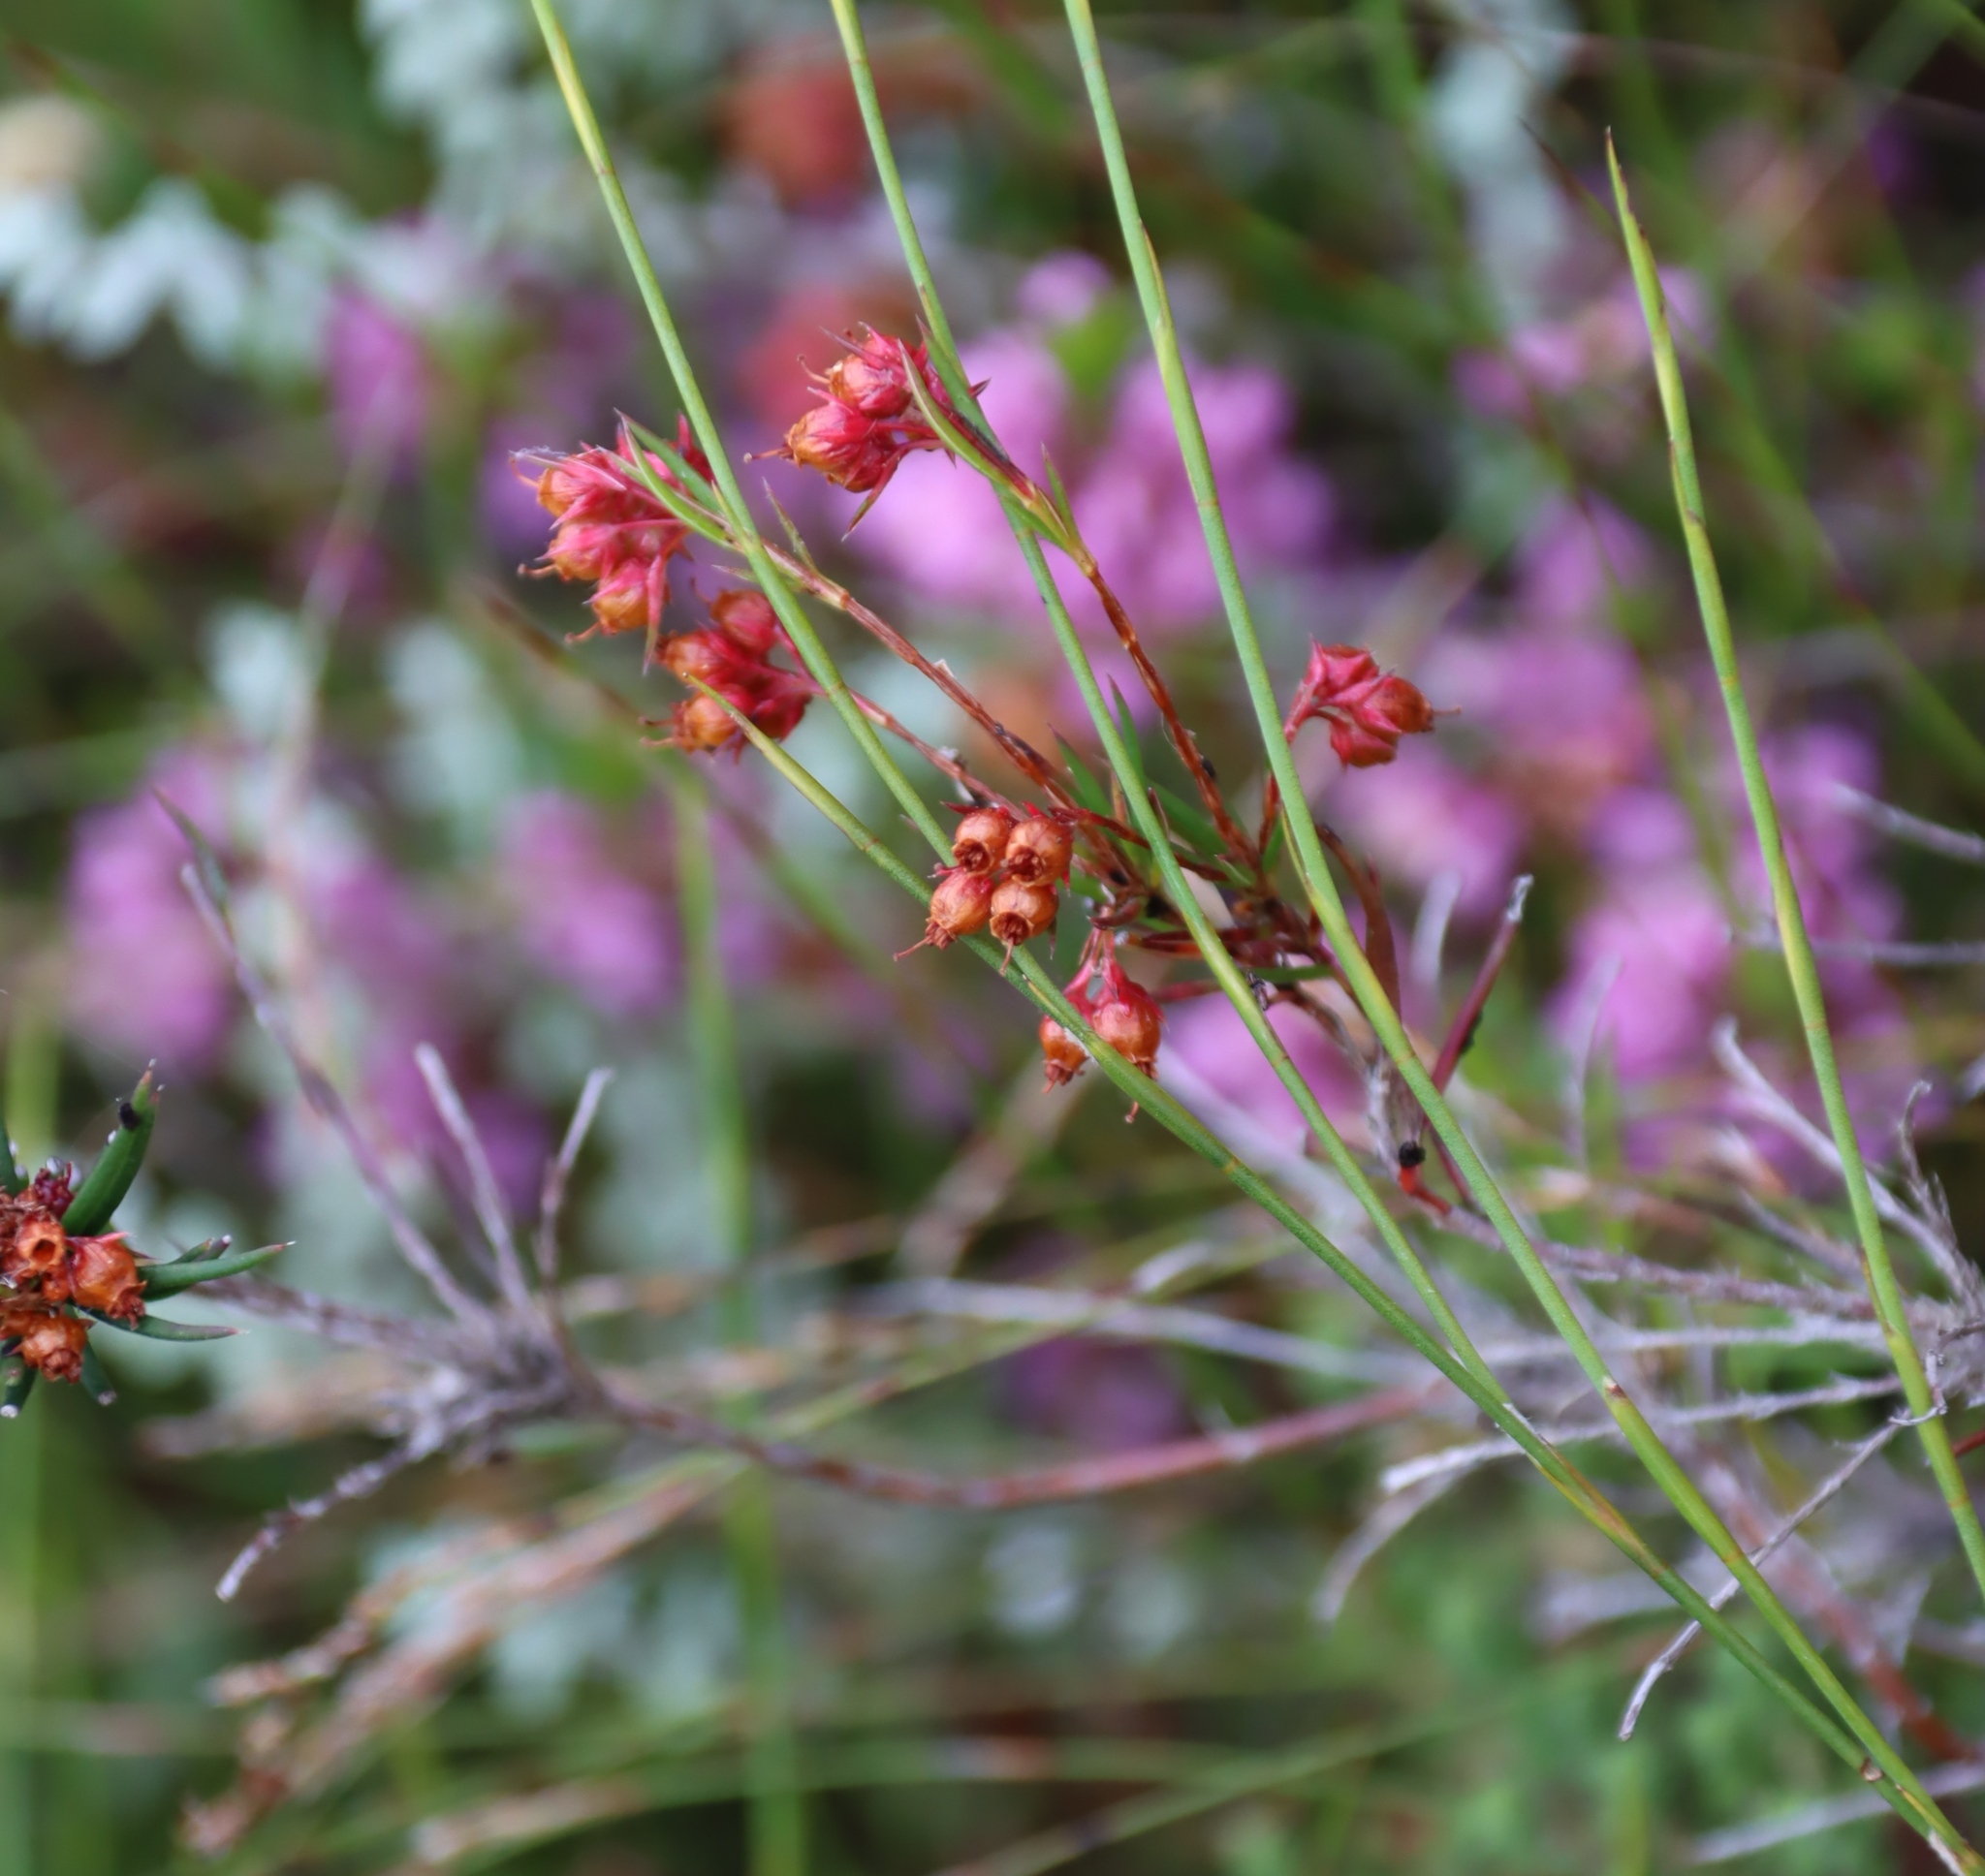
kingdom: Plantae
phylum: Tracheophyta
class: Magnoliopsida
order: Ericales
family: Ericaceae
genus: Erica
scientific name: Erica polifolia
